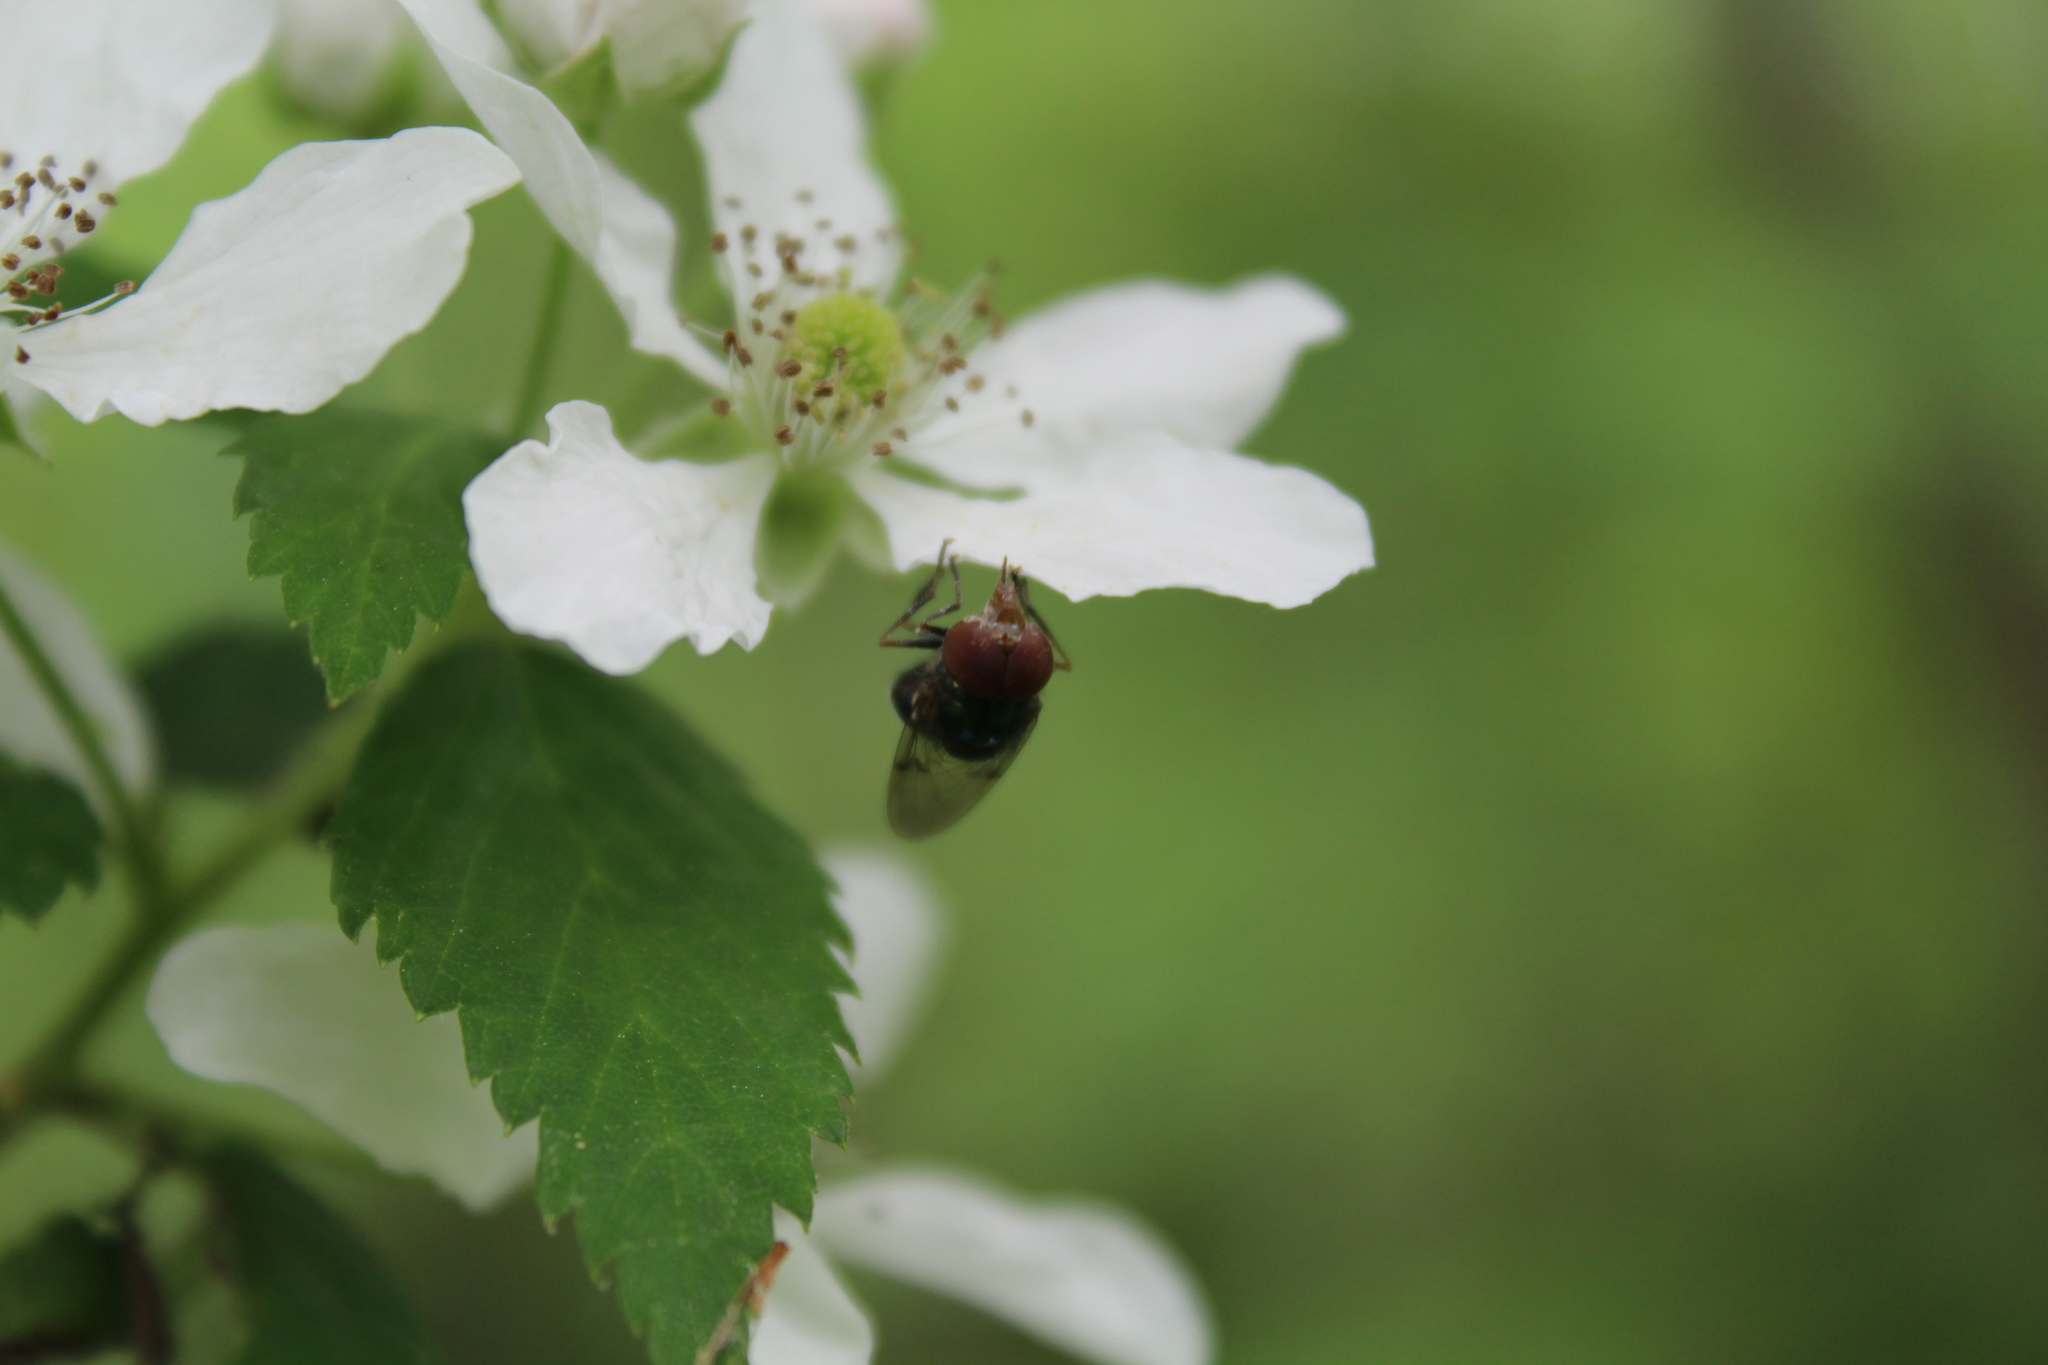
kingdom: Animalia
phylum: Arthropoda
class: Insecta
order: Diptera
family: Syrphidae
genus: Copestylum
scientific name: Copestylum
